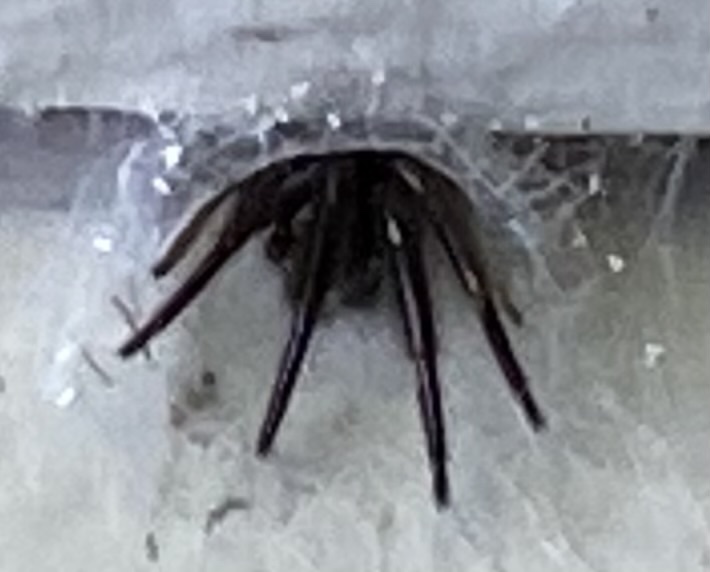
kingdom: Animalia
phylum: Arthropoda
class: Arachnida
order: Araneae
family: Segestriidae
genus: Ariadna
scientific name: Ariadna bicolor
